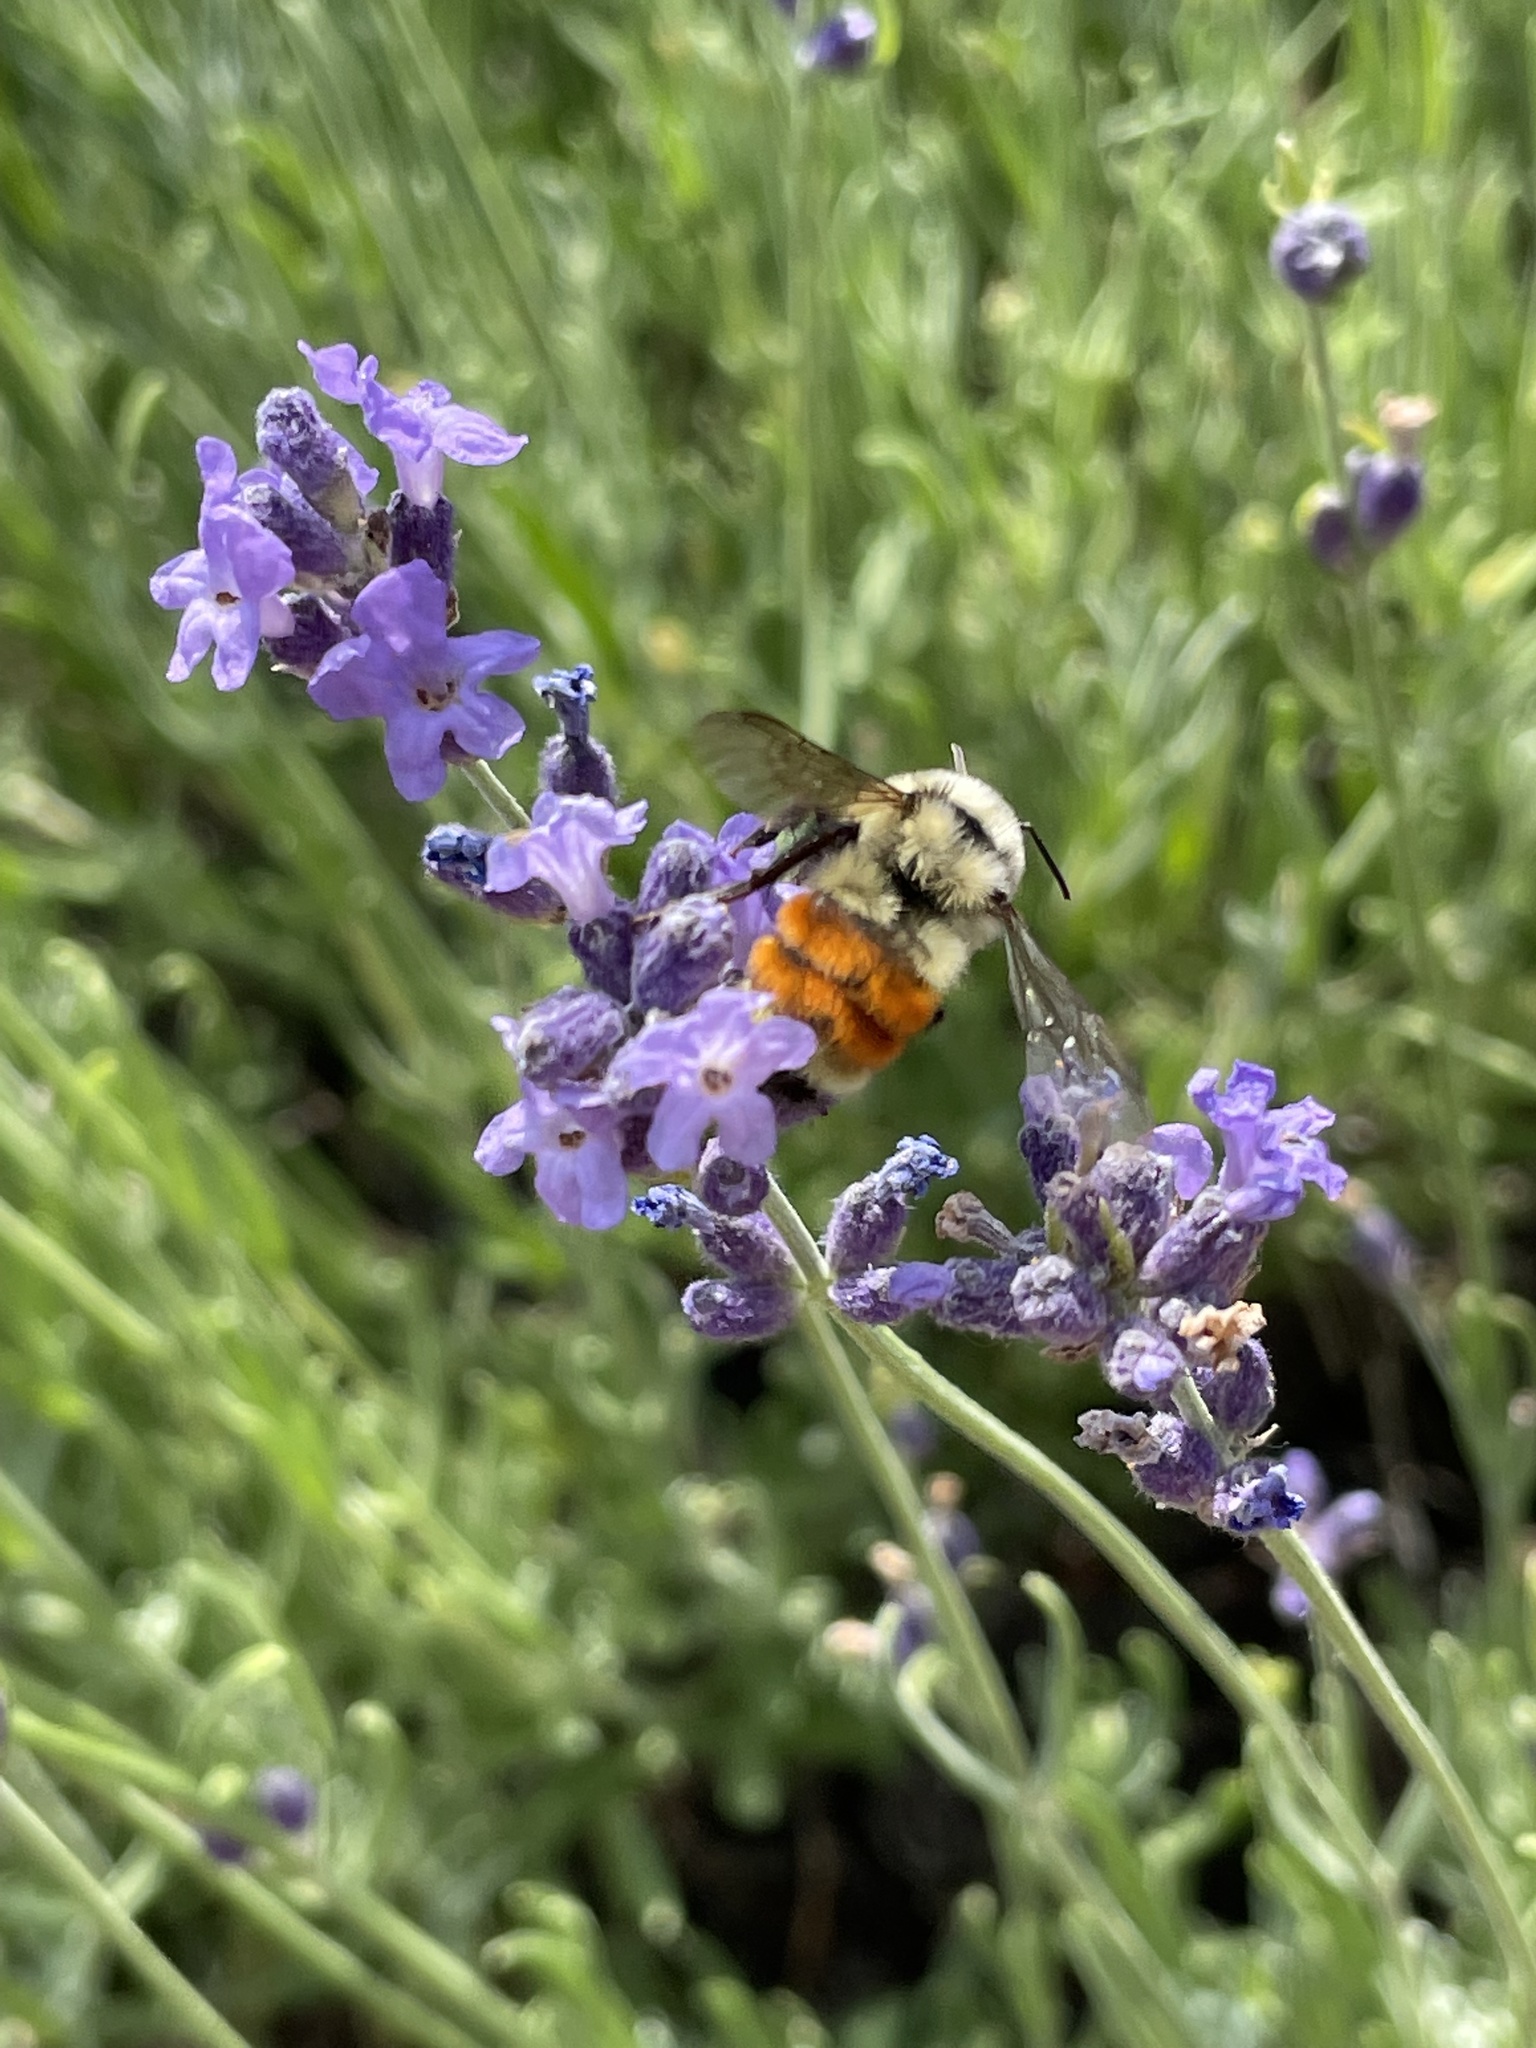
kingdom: Animalia
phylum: Arthropoda
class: Insecta
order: Hymenoptera
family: Apidae
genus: Bombus
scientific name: Bombus huntii
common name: Hunt bumble bee
